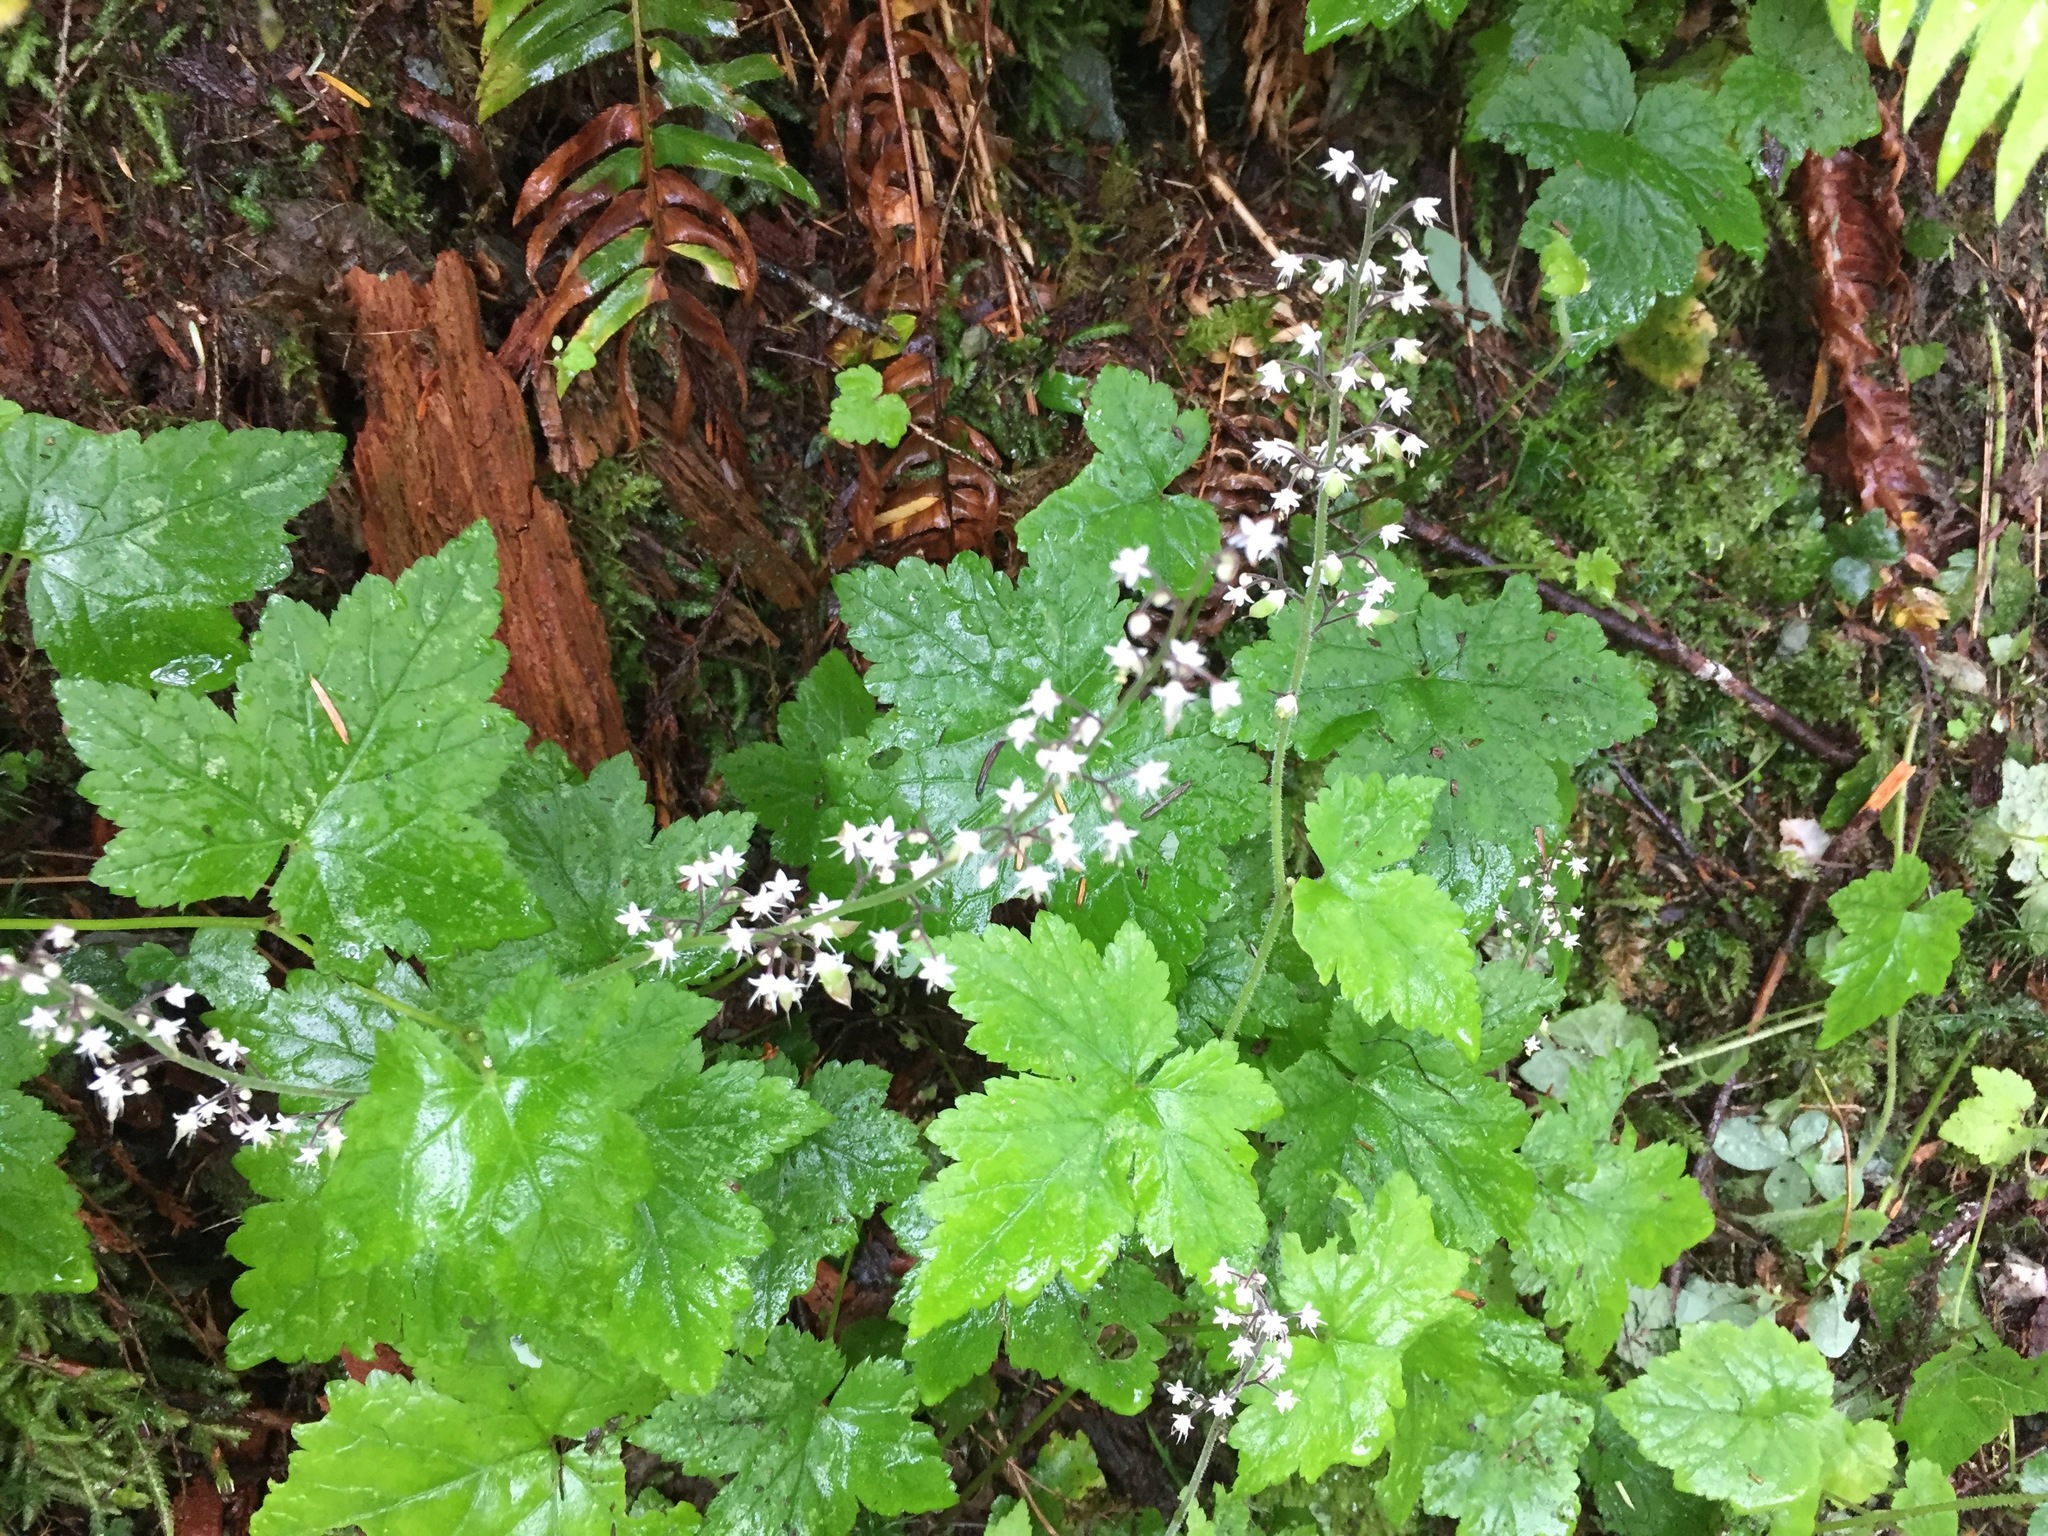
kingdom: Plantae
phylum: Tracheophyta
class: Magnoliopsida
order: Saxifragales
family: Saxifragaceae
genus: Tiarella
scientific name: Tiarella trifoliata
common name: Sugar-scoop
